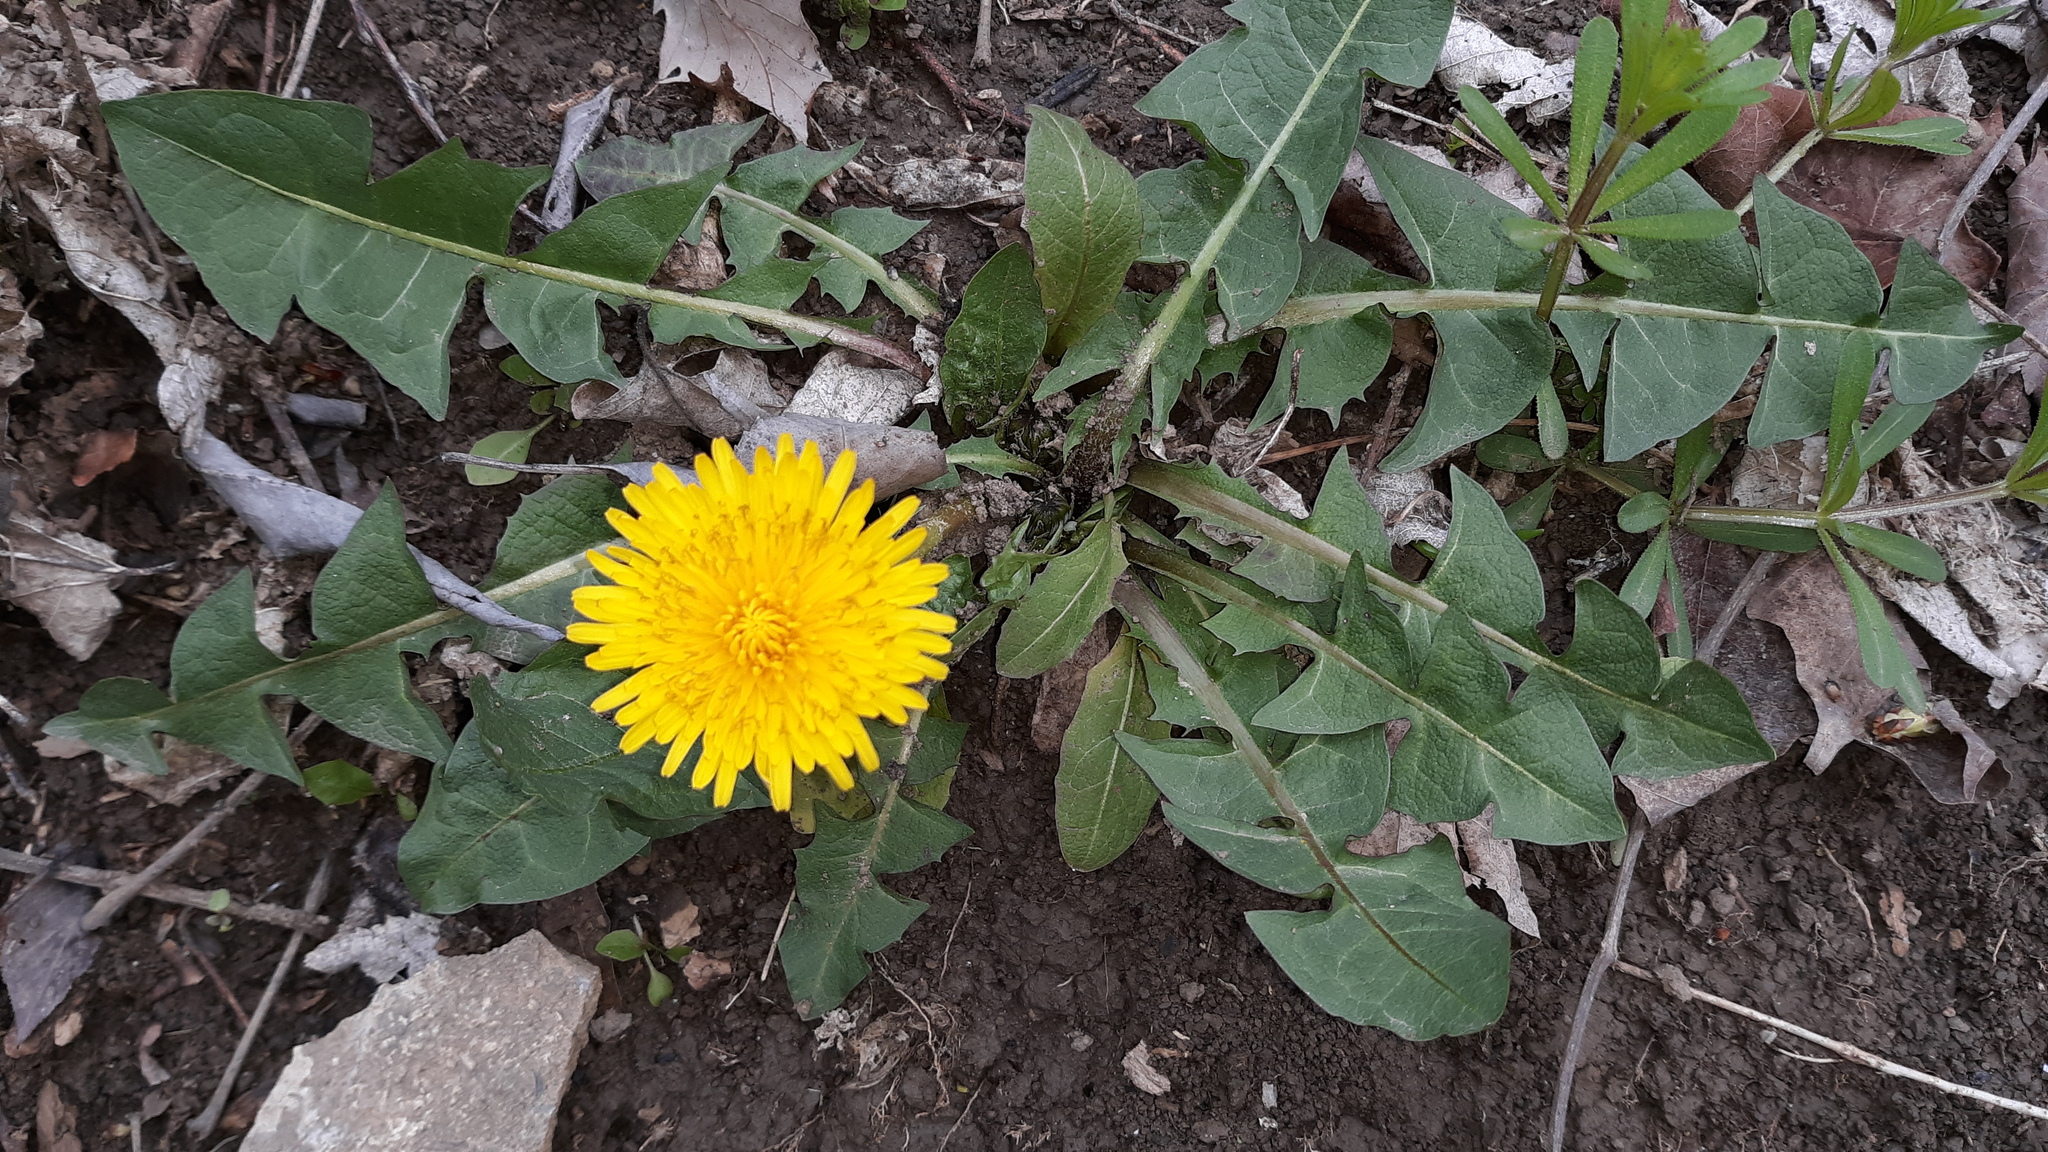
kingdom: Plantae
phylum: Tracheophyta
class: Magnoliopsida
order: Asterales
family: Asteraceae
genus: Taraxacum
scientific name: Taraxacum officinale
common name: Common dandelion
